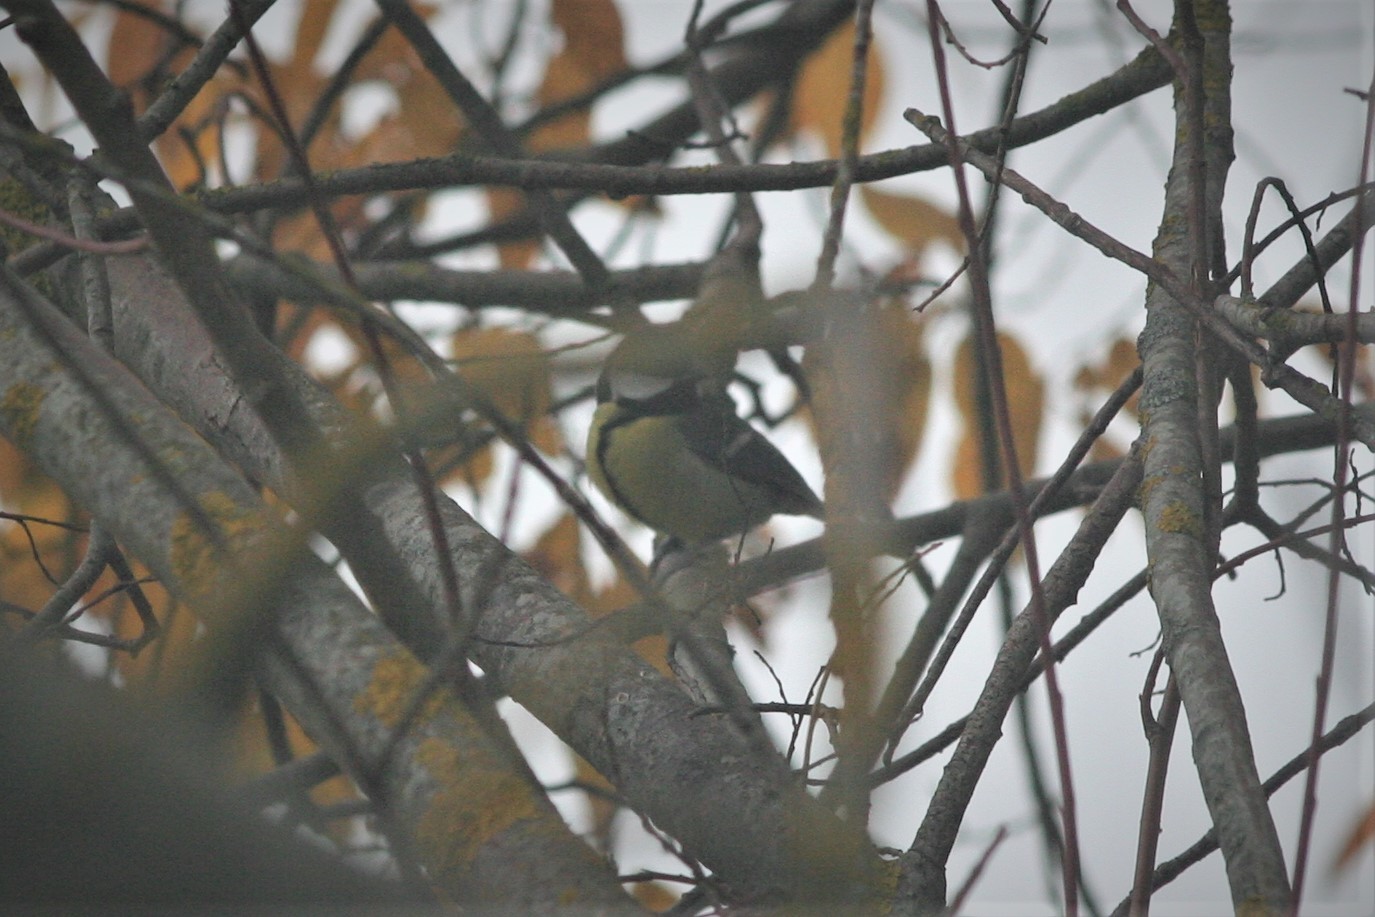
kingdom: Animalia
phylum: Chordata
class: Aves
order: Passeriformes
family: Paridae
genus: Parus
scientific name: Parus major
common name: Great tit
